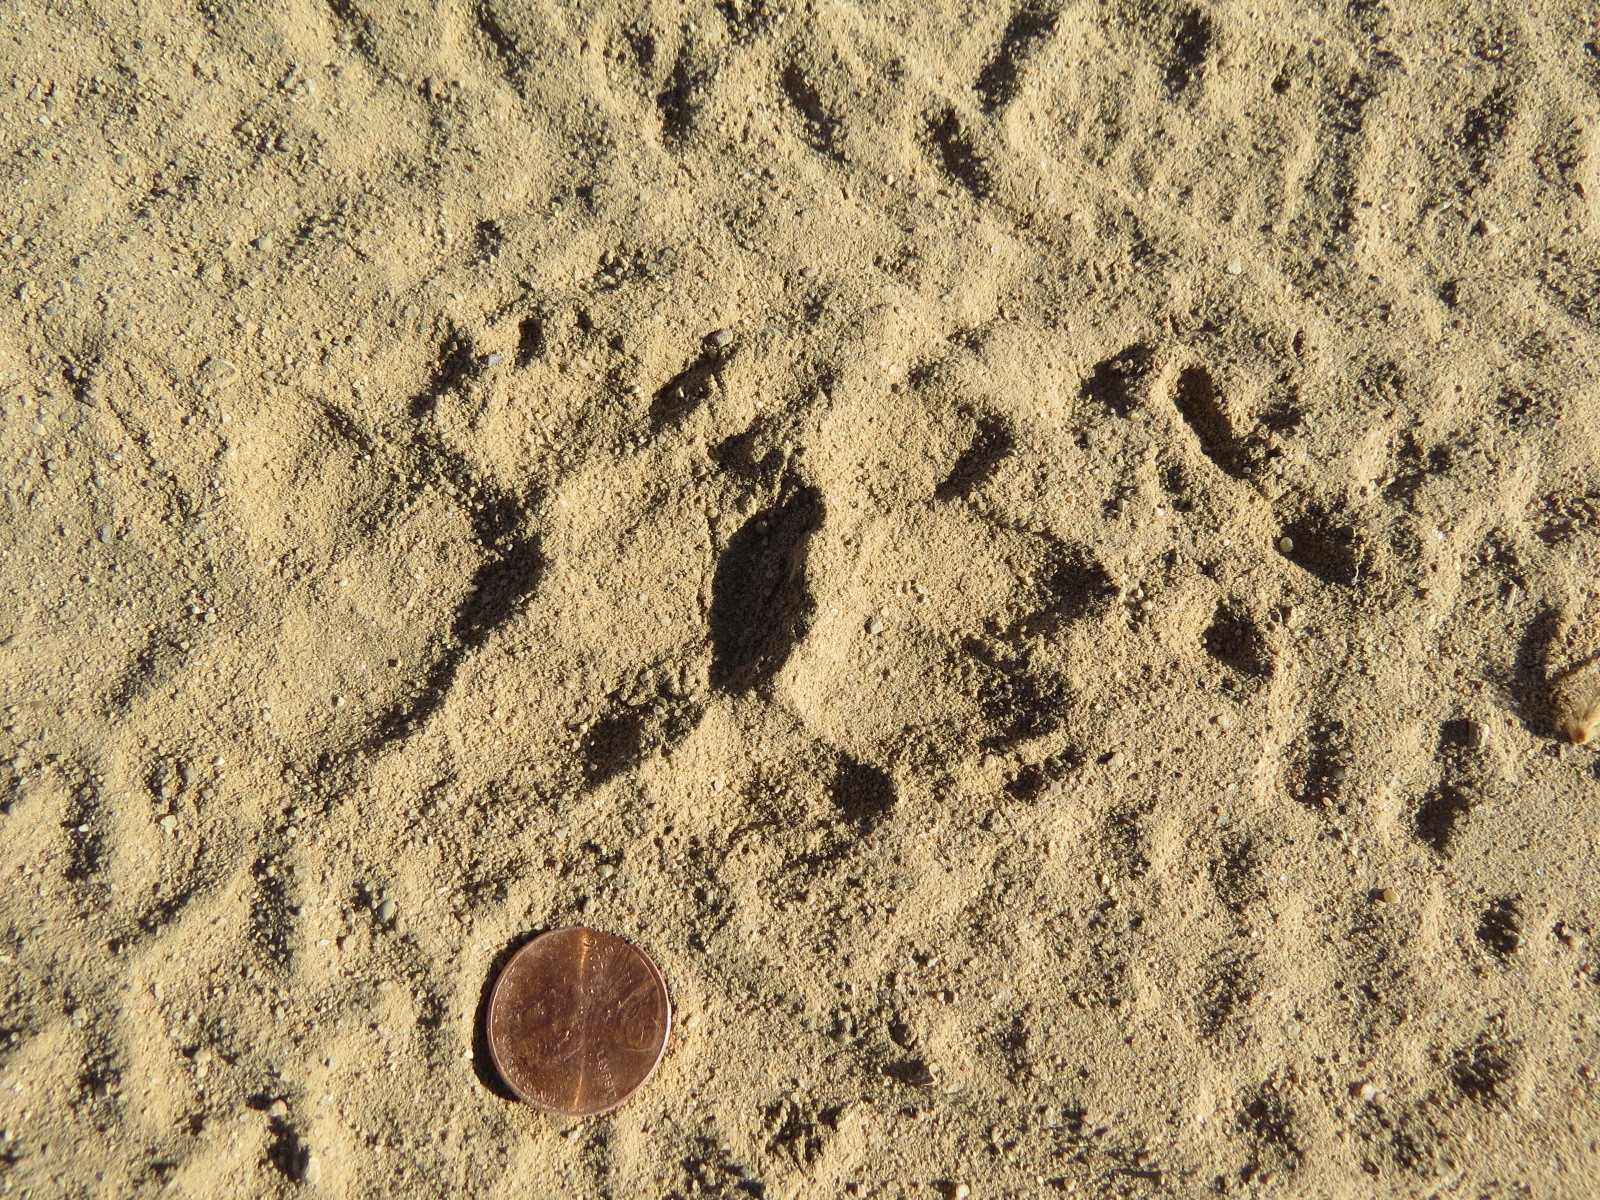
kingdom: Animalia
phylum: Chordata
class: Mammalia
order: Carnivora
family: Mustelidae
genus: Taxidea
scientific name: Taxidea taxus
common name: American badger
